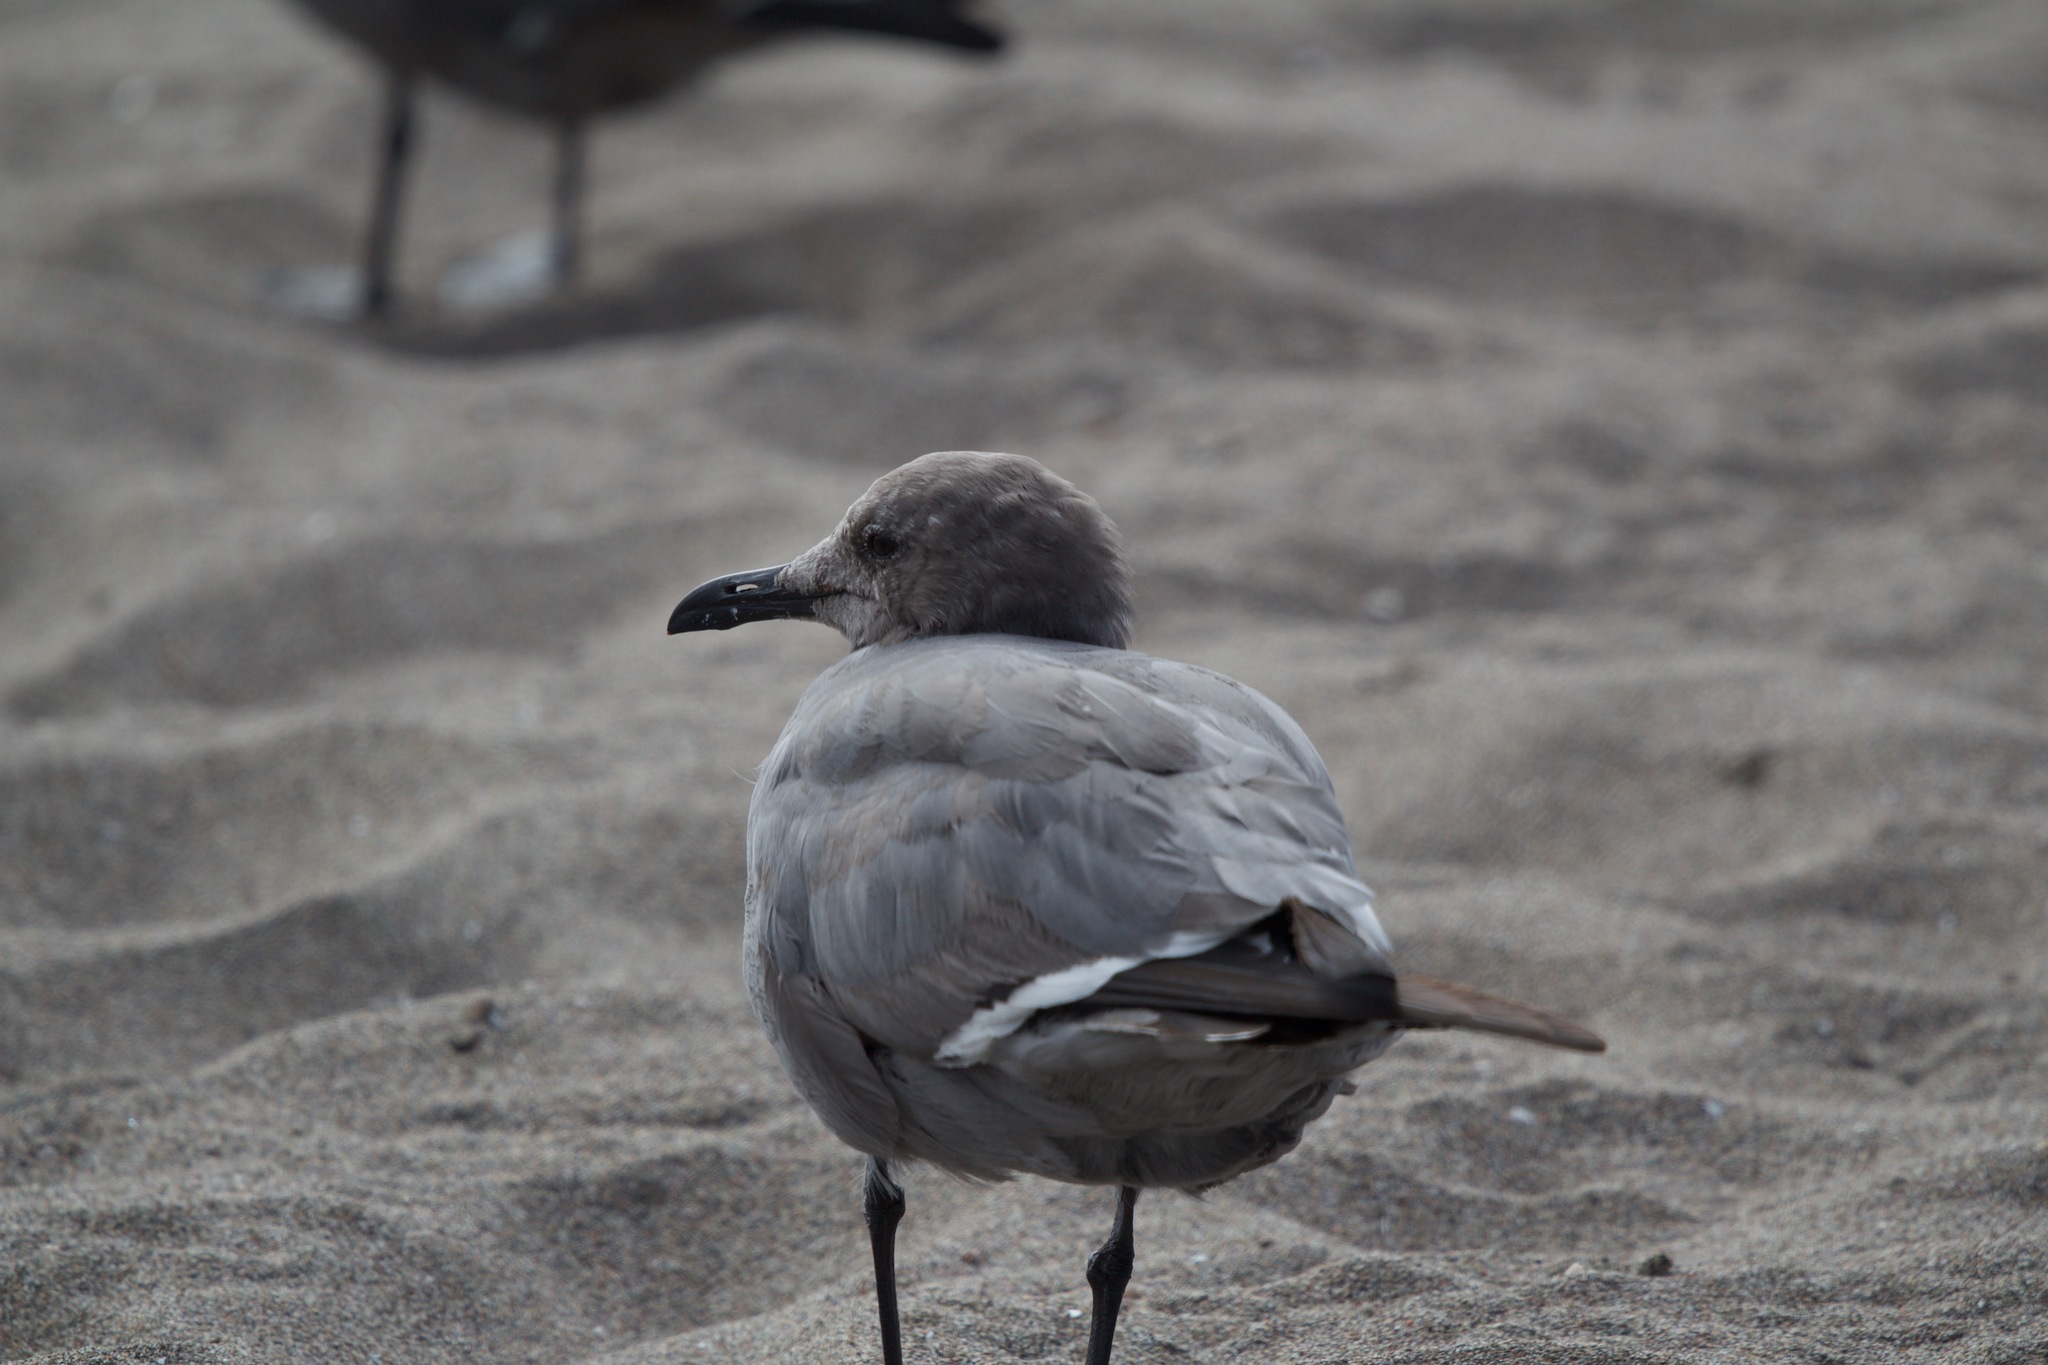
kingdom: Animalia
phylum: Chordata
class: Aves
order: Charadriiformes
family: Laridae
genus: Leucophaeus
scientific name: Leucophaeus modestus
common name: Gray gull
